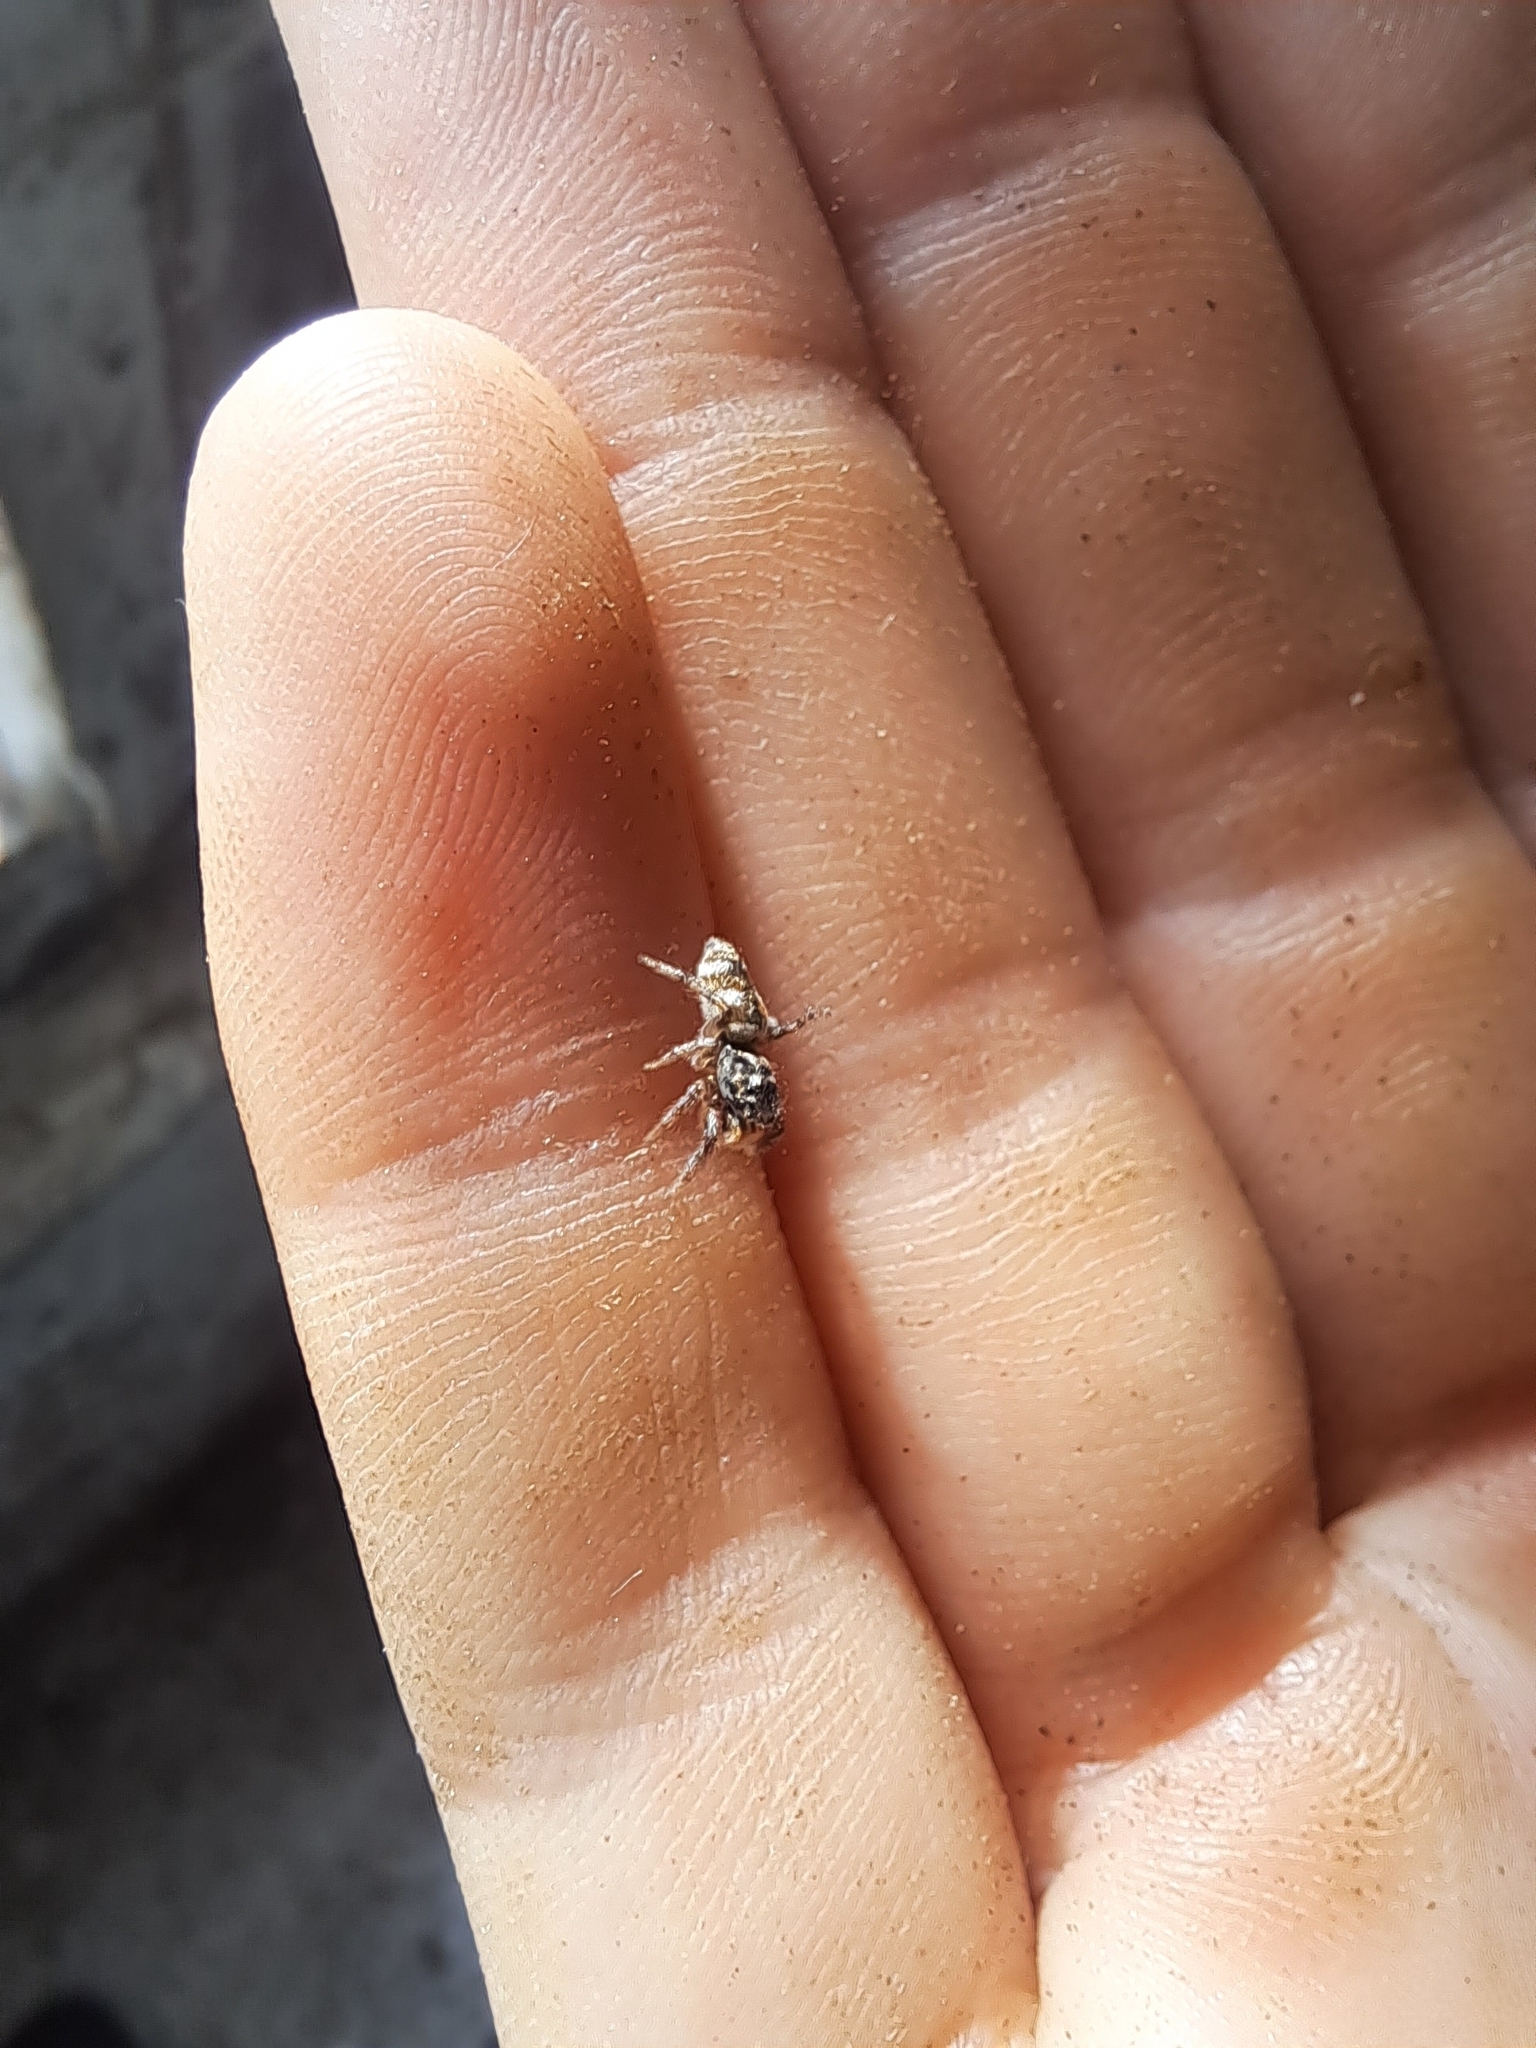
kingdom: Animalia
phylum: Arthropoda
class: Arachnida
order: Araneae
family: Salticidae
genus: Salticus
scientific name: Salticus scenicus
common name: Zebra jumper
